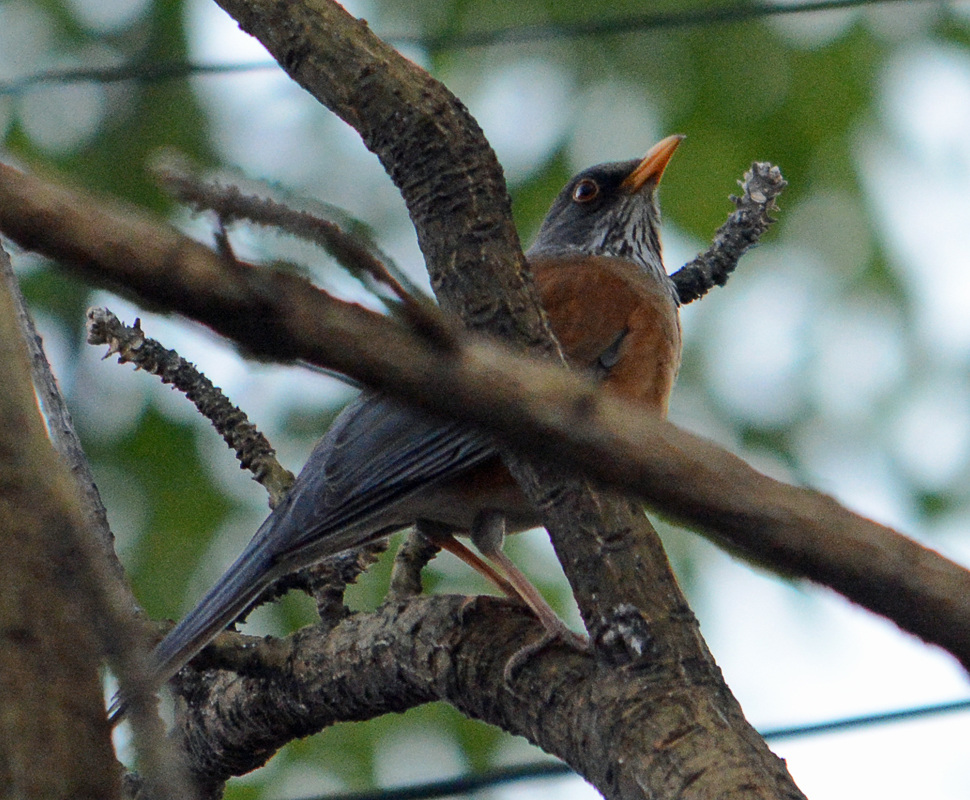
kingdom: Animalia
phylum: Chordata
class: Aves
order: Passeriformes
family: Turdidae
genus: Turdus
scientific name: Turdus rufopalliatus
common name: Rufous-backed robin
